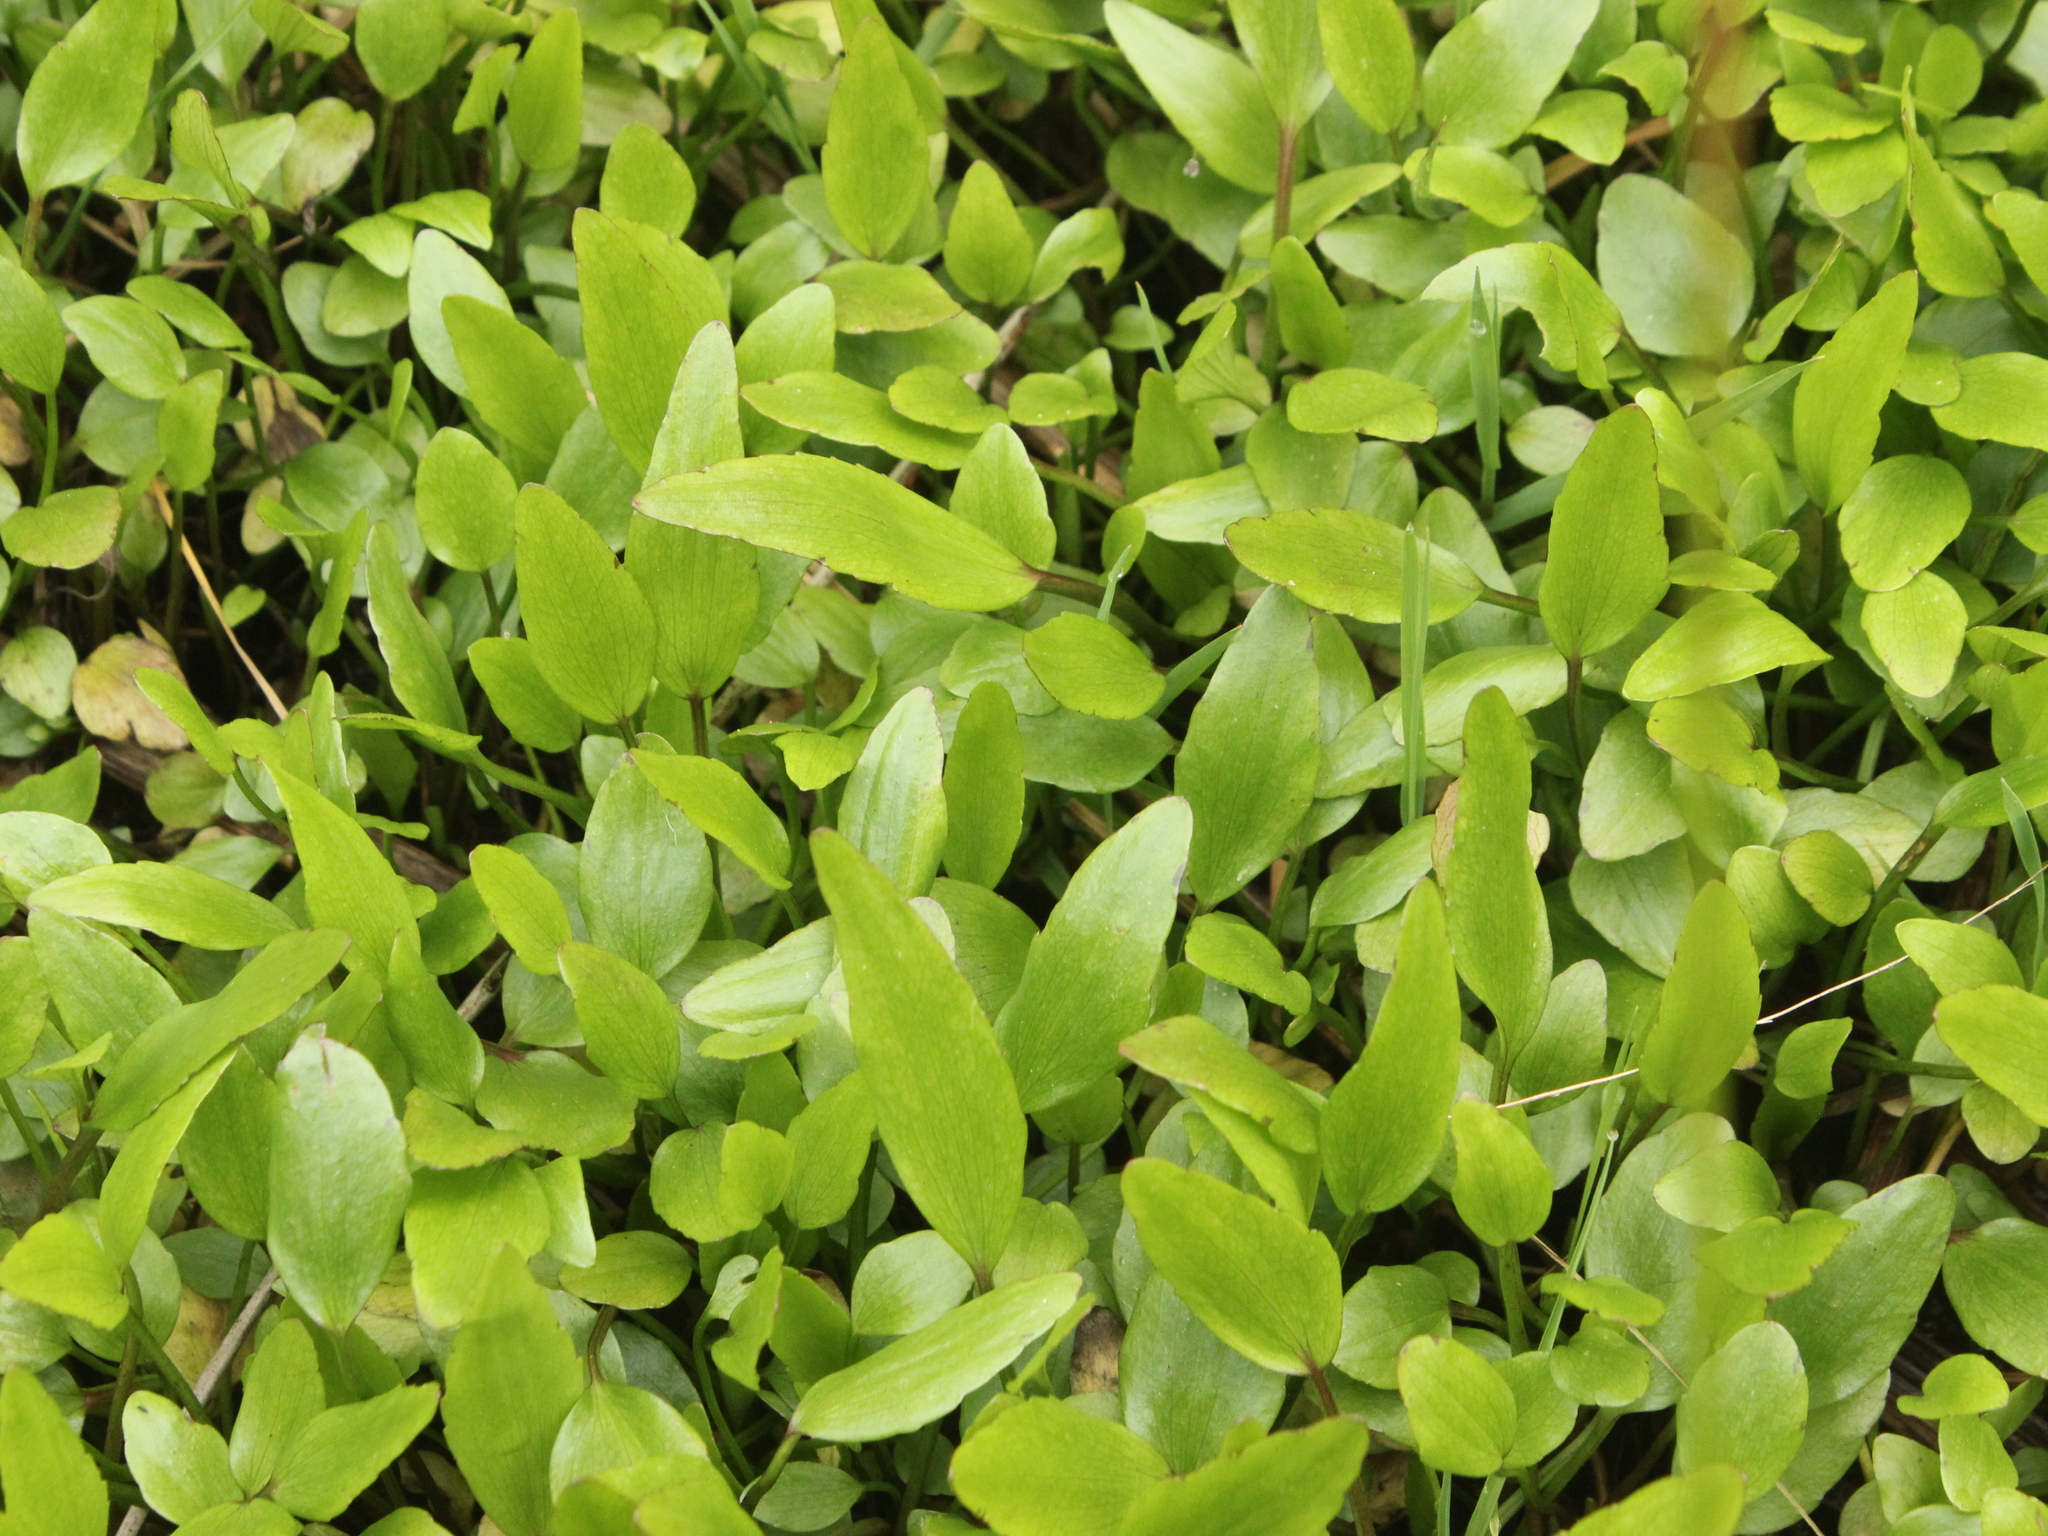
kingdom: Plantae
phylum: Tracheophyta
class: Magnoliopsida
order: Ranunculales
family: Ranunculaceae
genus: Ranunculus
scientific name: Ranunculus flammula
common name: Lesser spearwort
